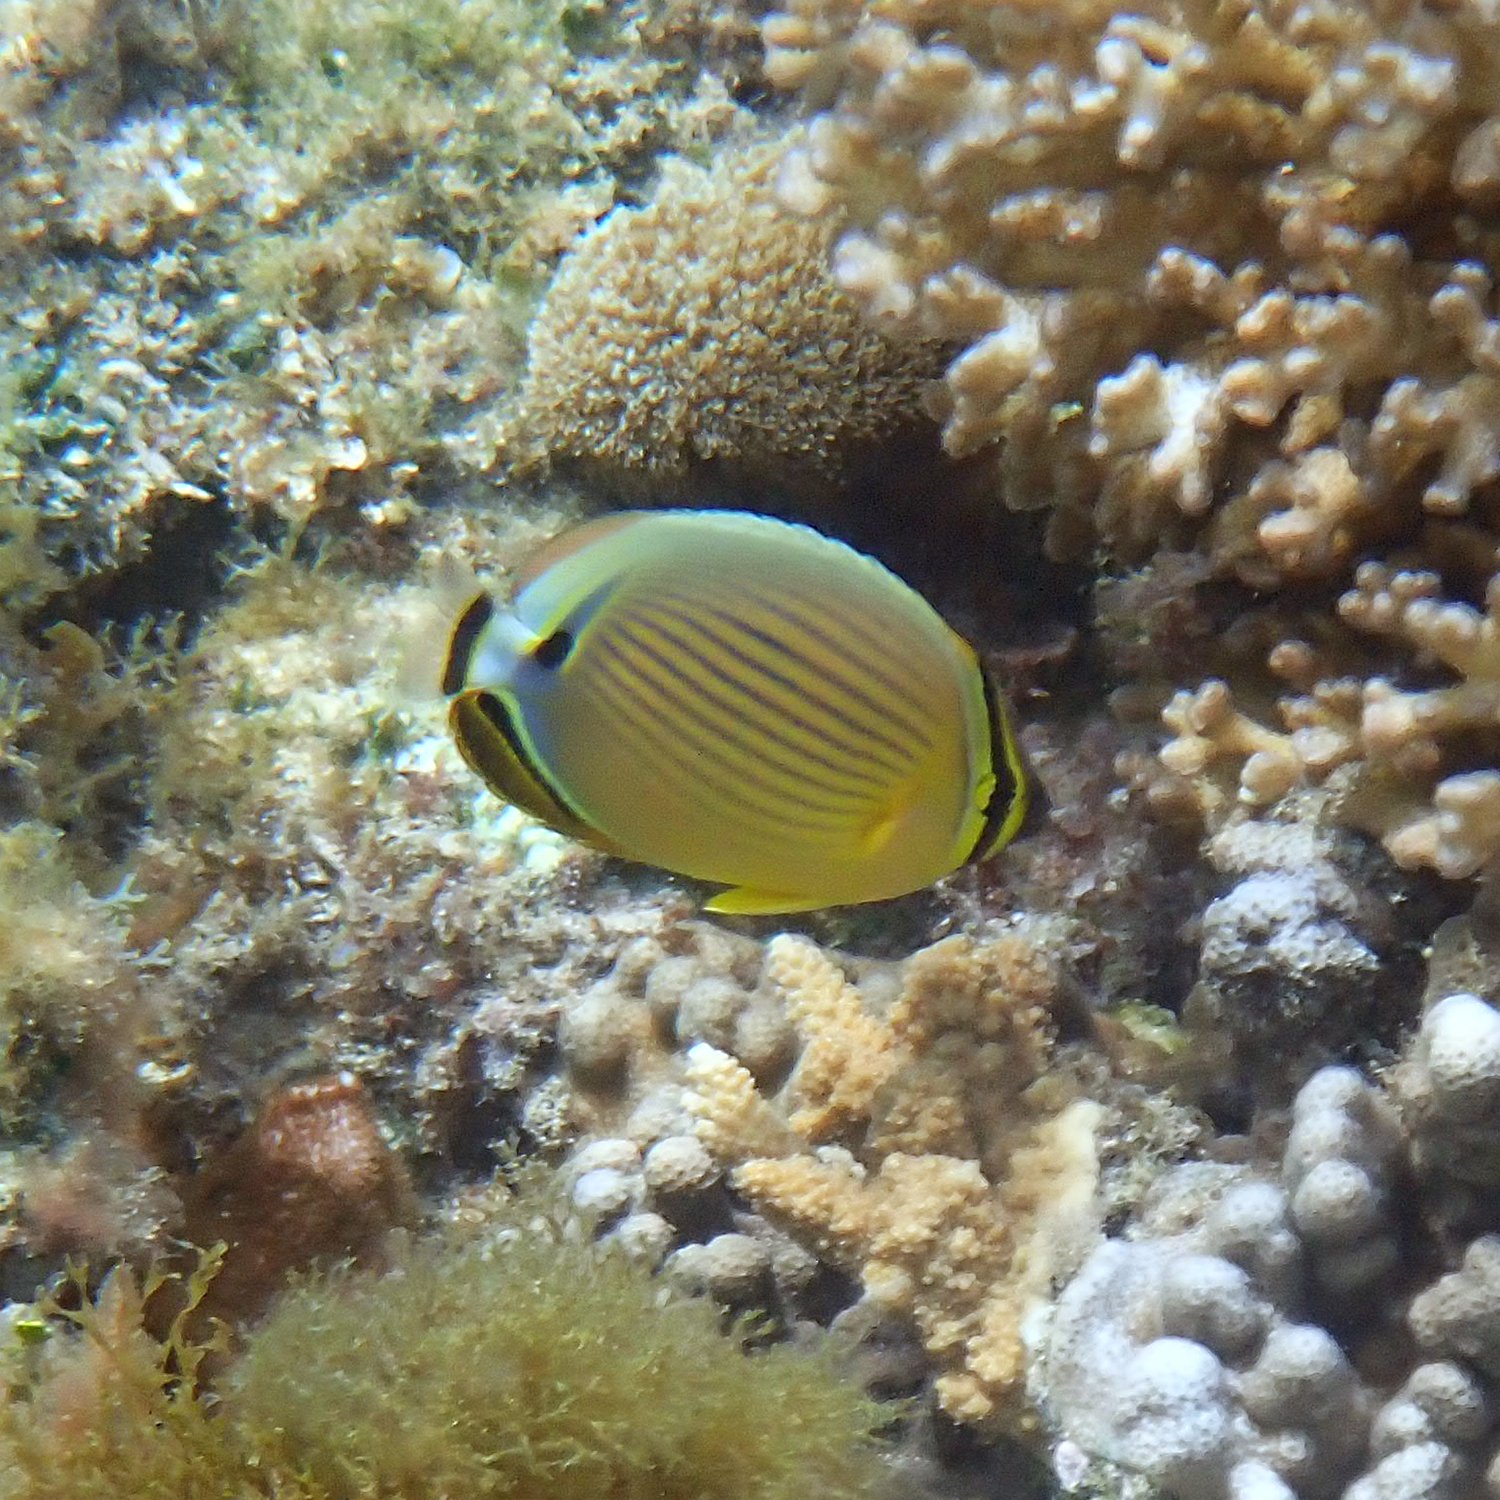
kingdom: Animalia
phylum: Chordata
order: Perciformes
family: Chaetodontidae
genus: Chaetodon
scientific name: Chaetodon lunulatus
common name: Redfin butterflyfish
